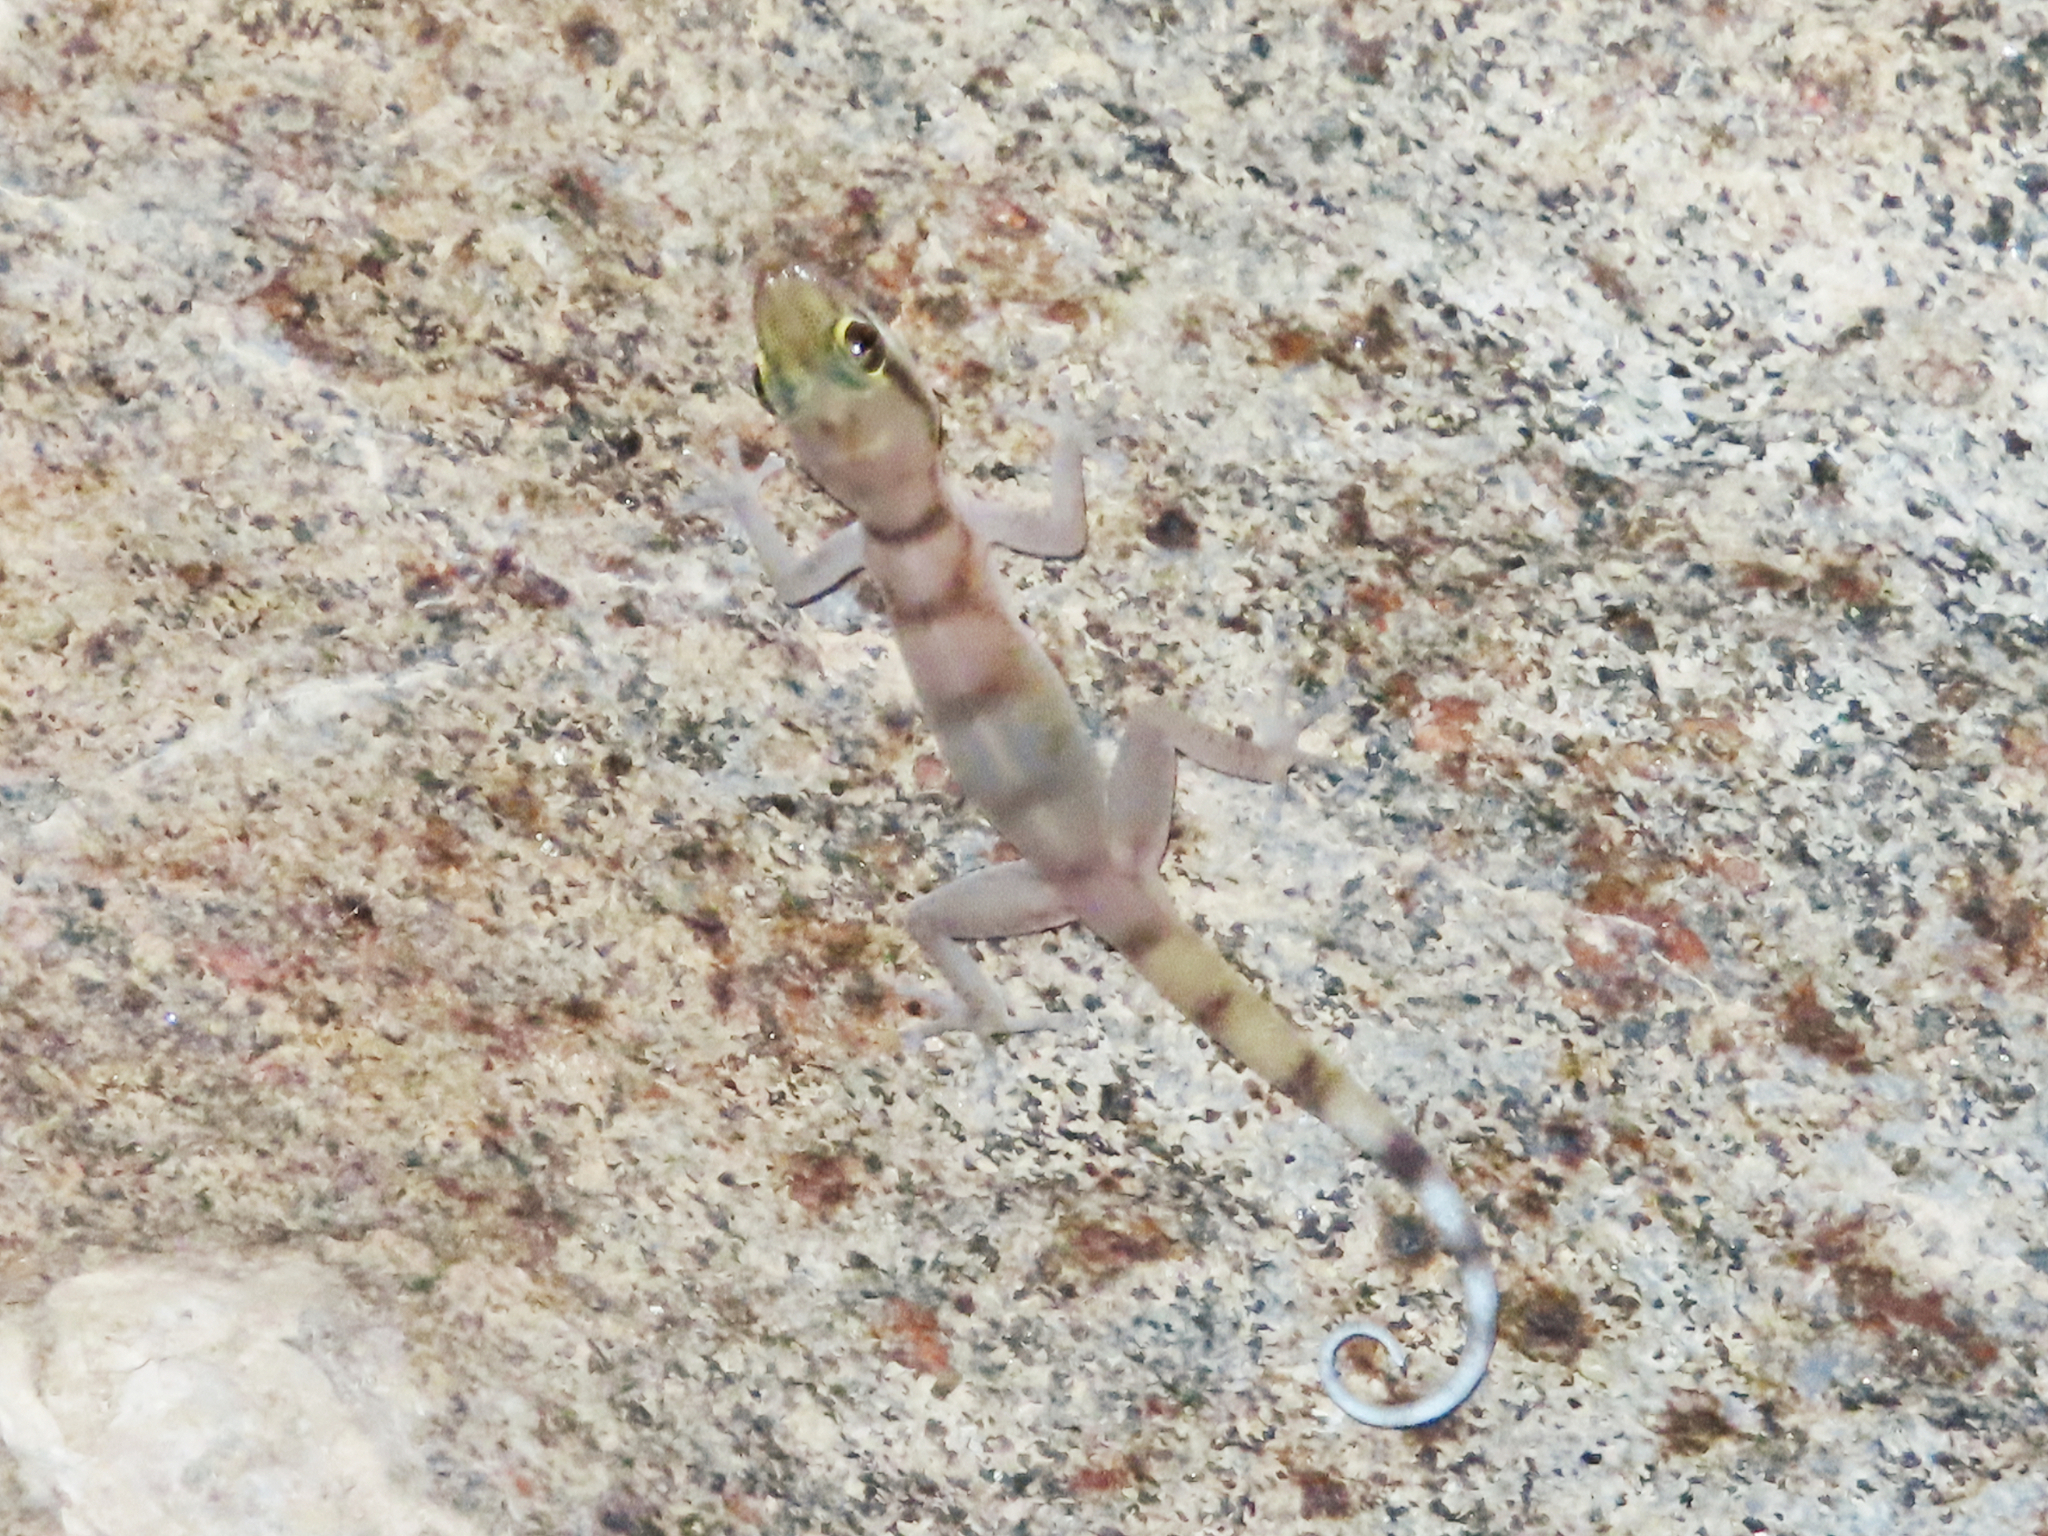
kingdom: Animalia
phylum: Chordata
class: Squamata
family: Phyllodactylidae
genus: Asaccus
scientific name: Asaccus gallagheri
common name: Gallagher's gecko
